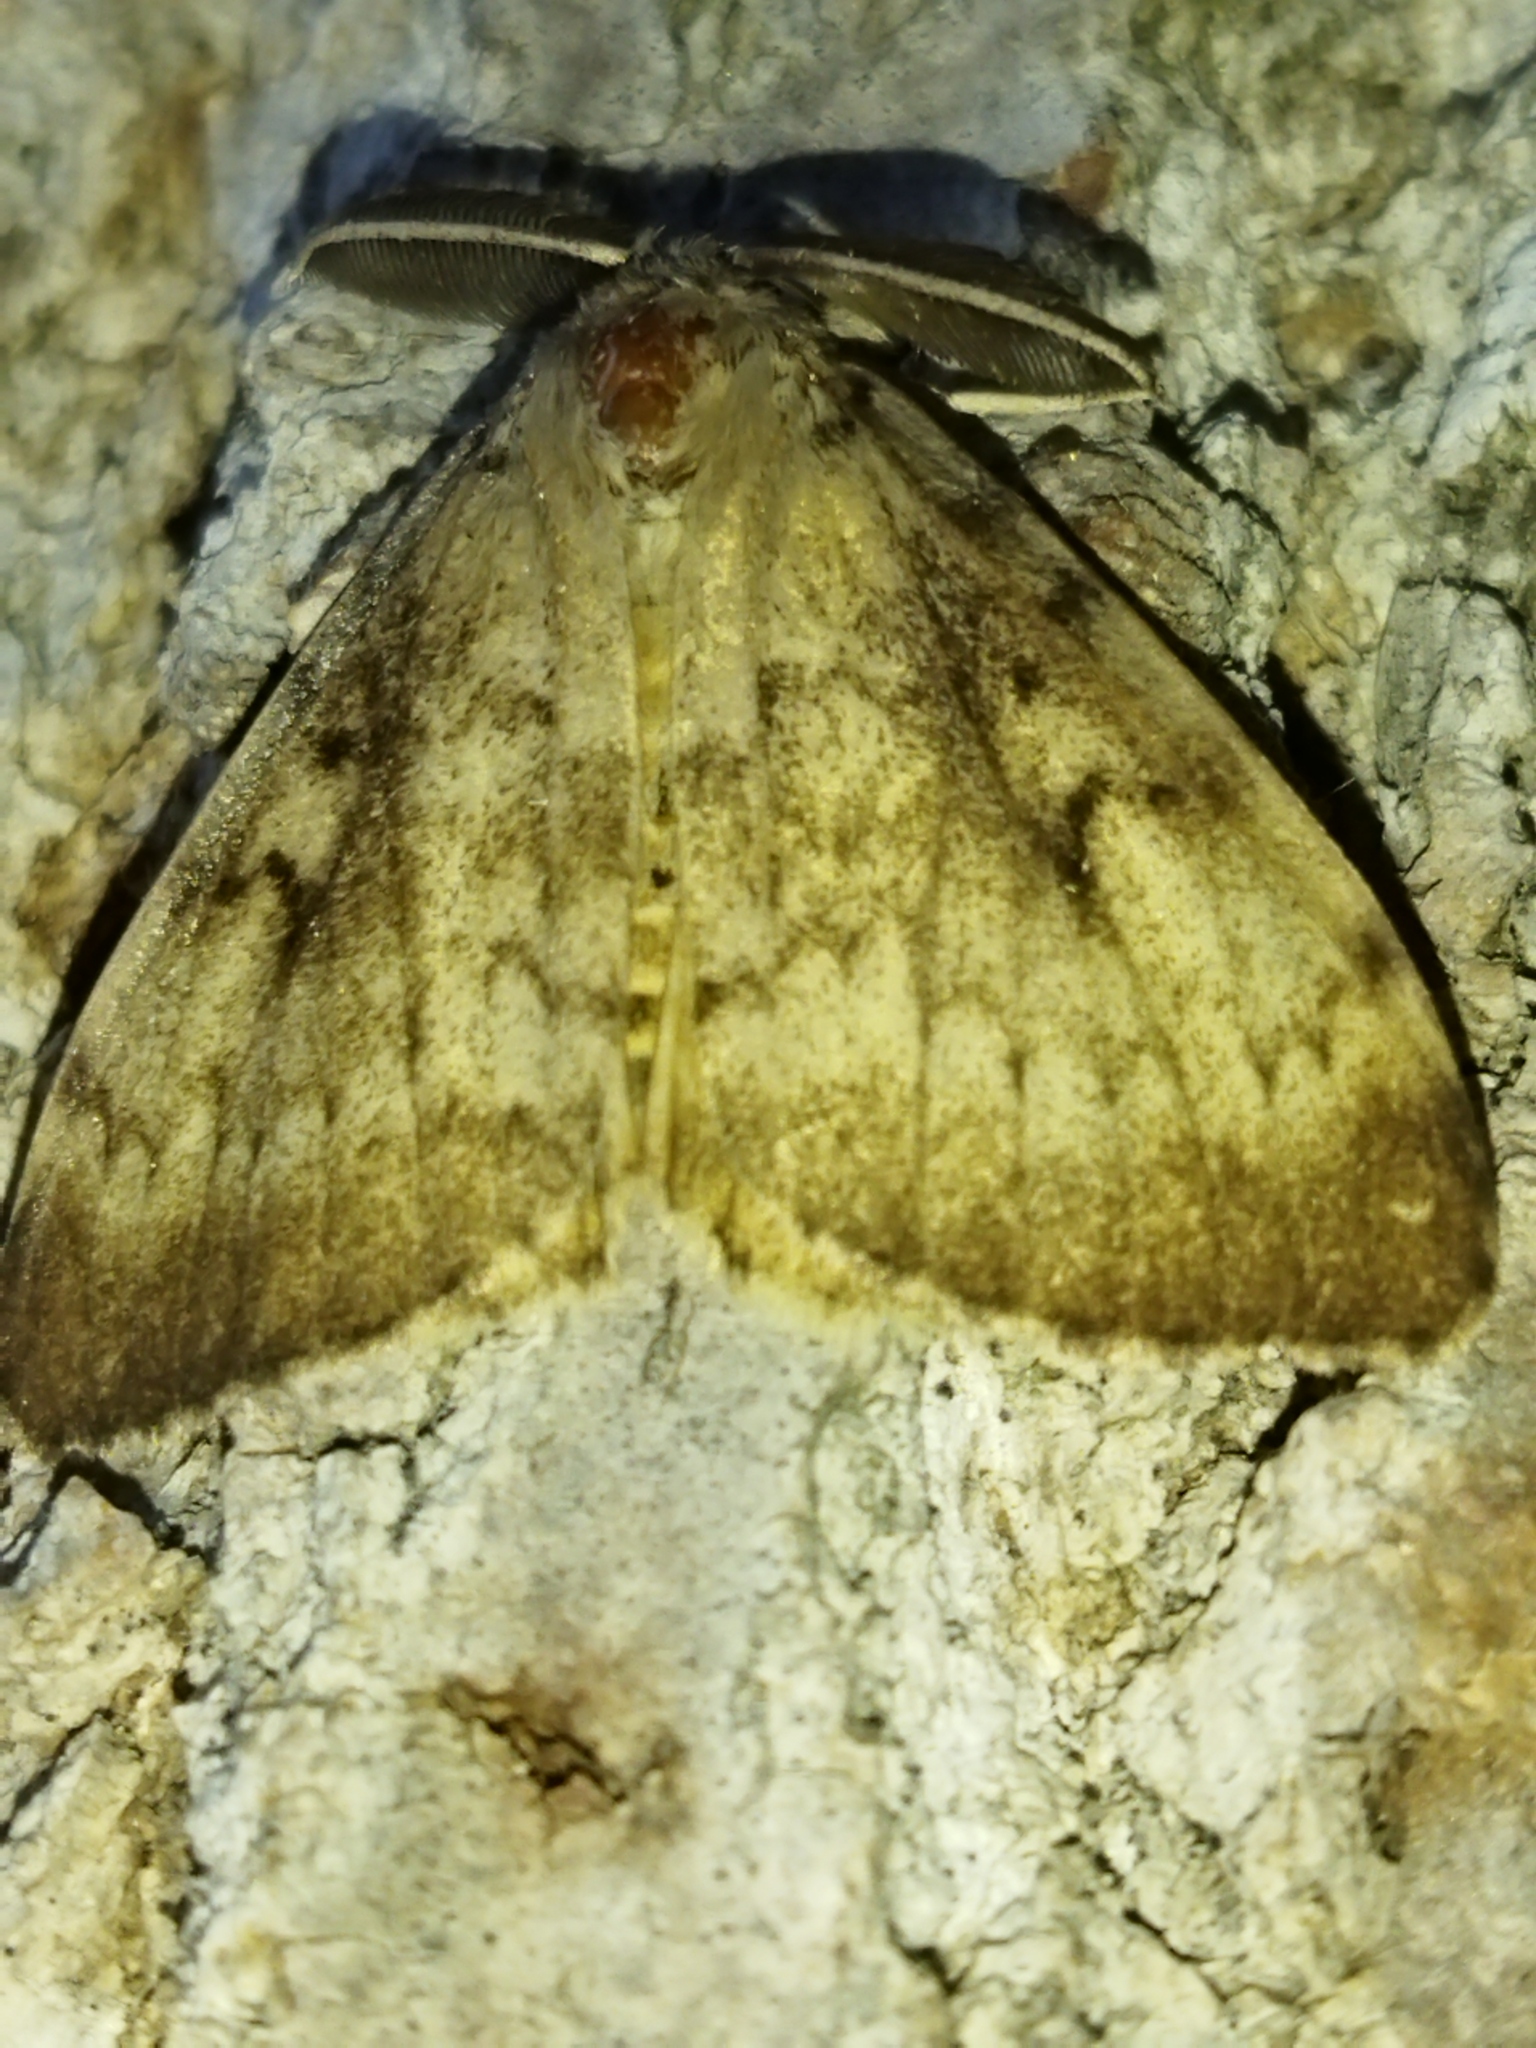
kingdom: Animalia
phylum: Arthropoda
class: Insecta
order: Lepidoptera
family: Erebidae
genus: Lymantria
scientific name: Lymantria dispar
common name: Gypsy moth
